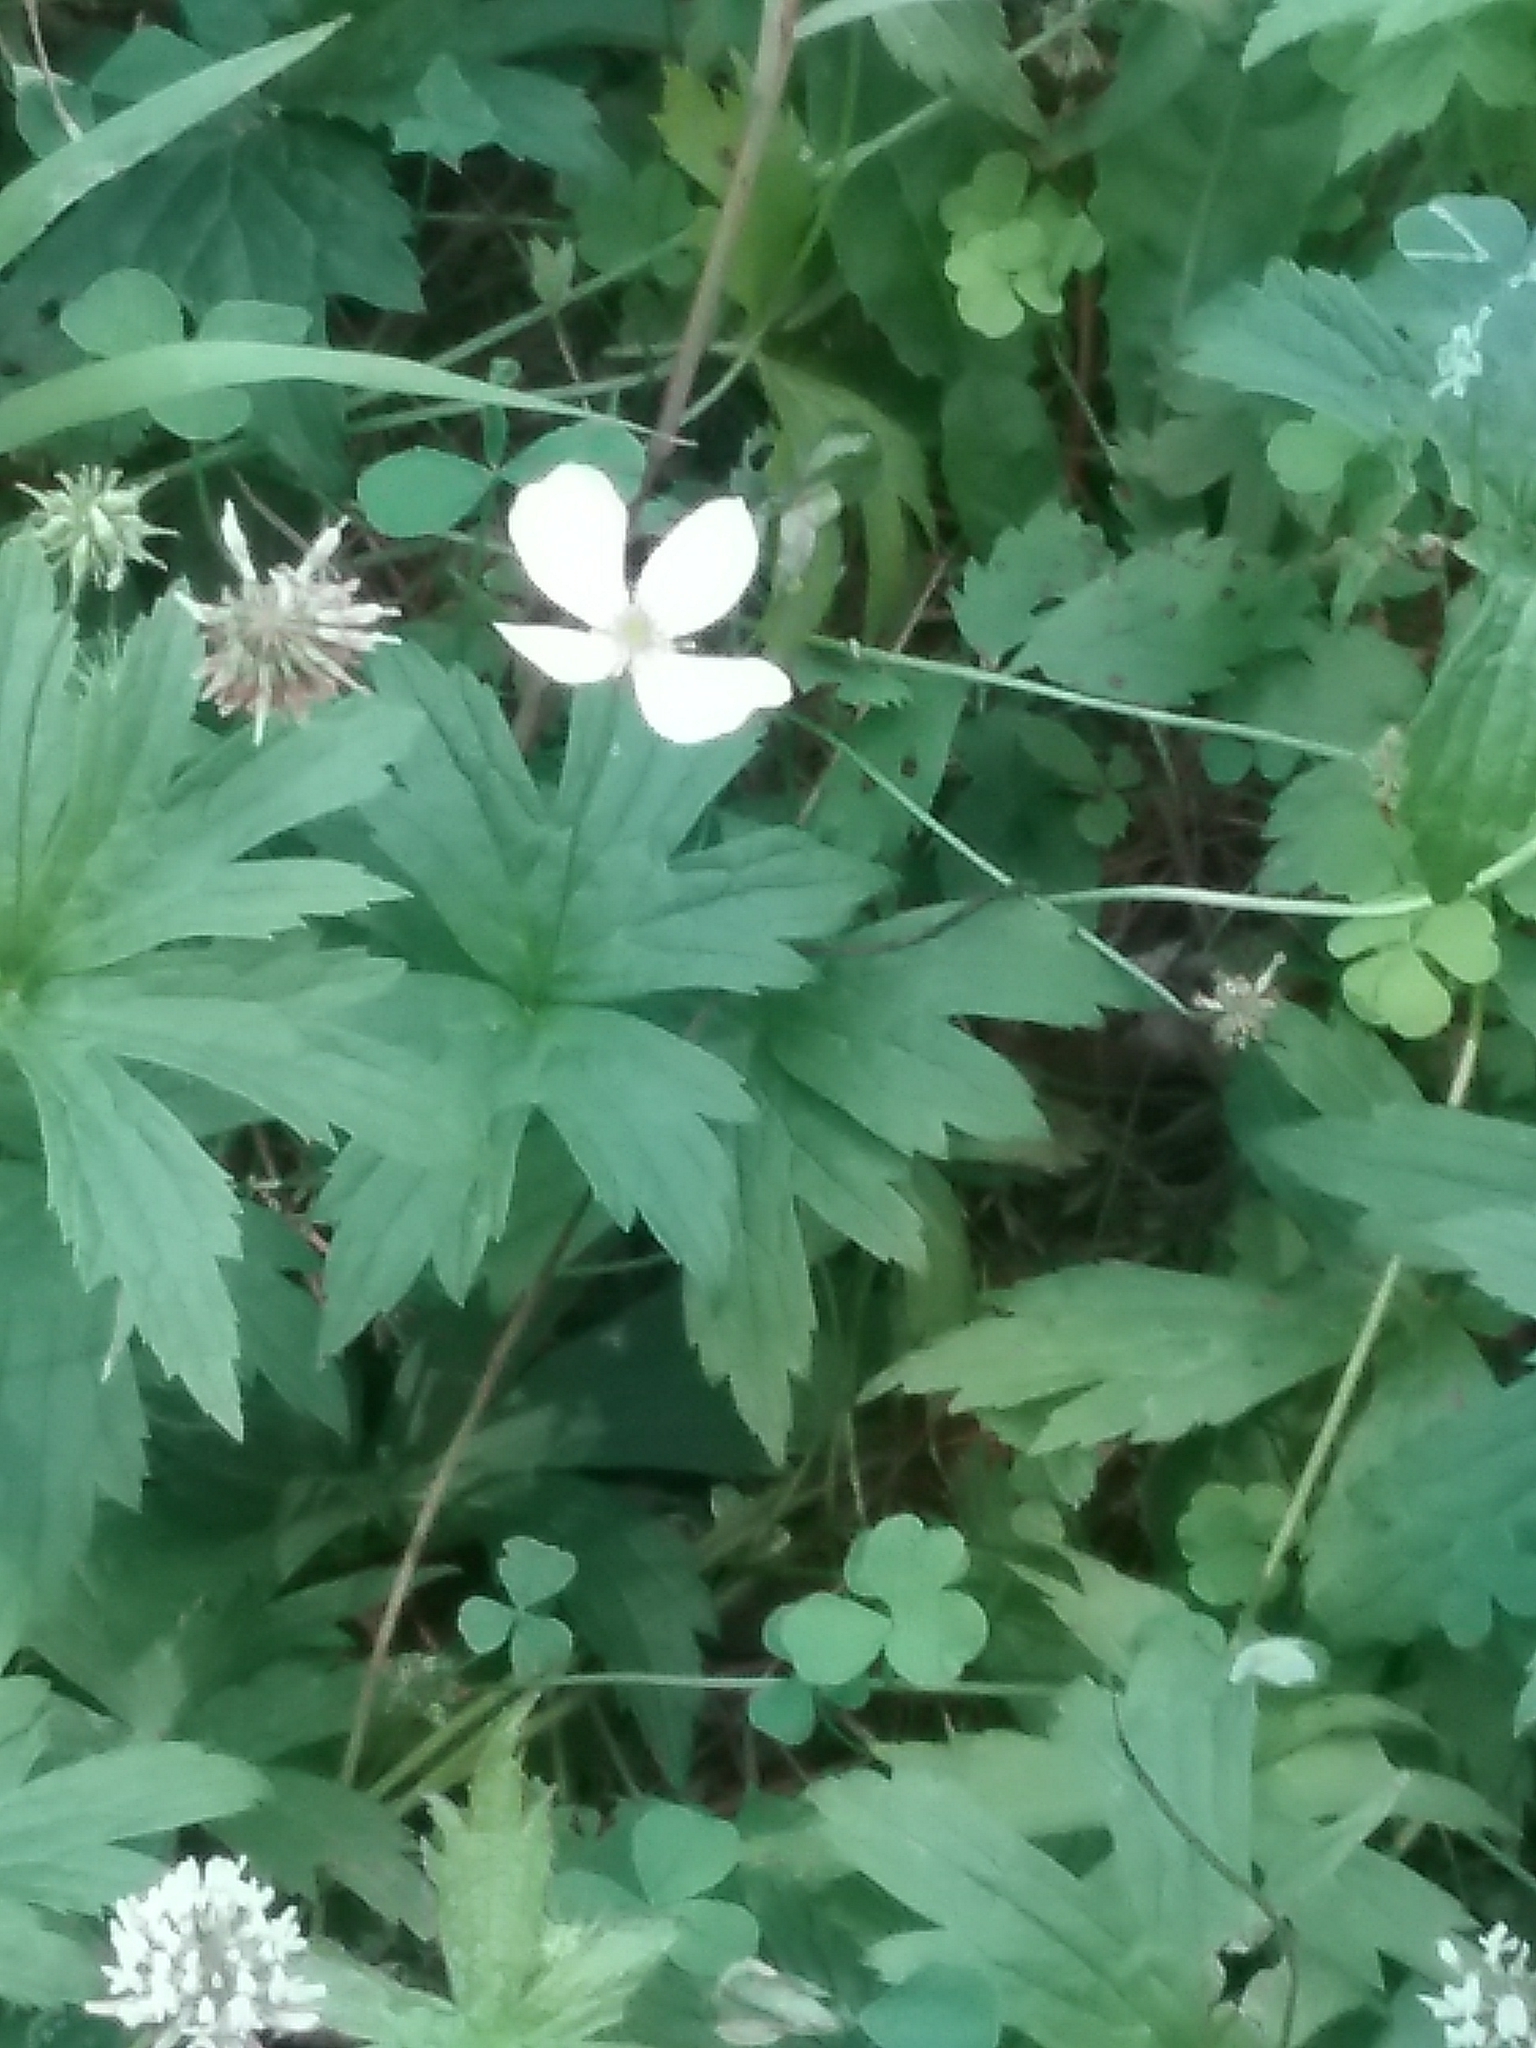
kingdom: Plantae
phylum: Tracheophyta
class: Magnoliopsida
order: Ranunculales
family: Ranunculaceae
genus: Anemonastrum
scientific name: Anemonastrum canadense
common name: Canada anemone
